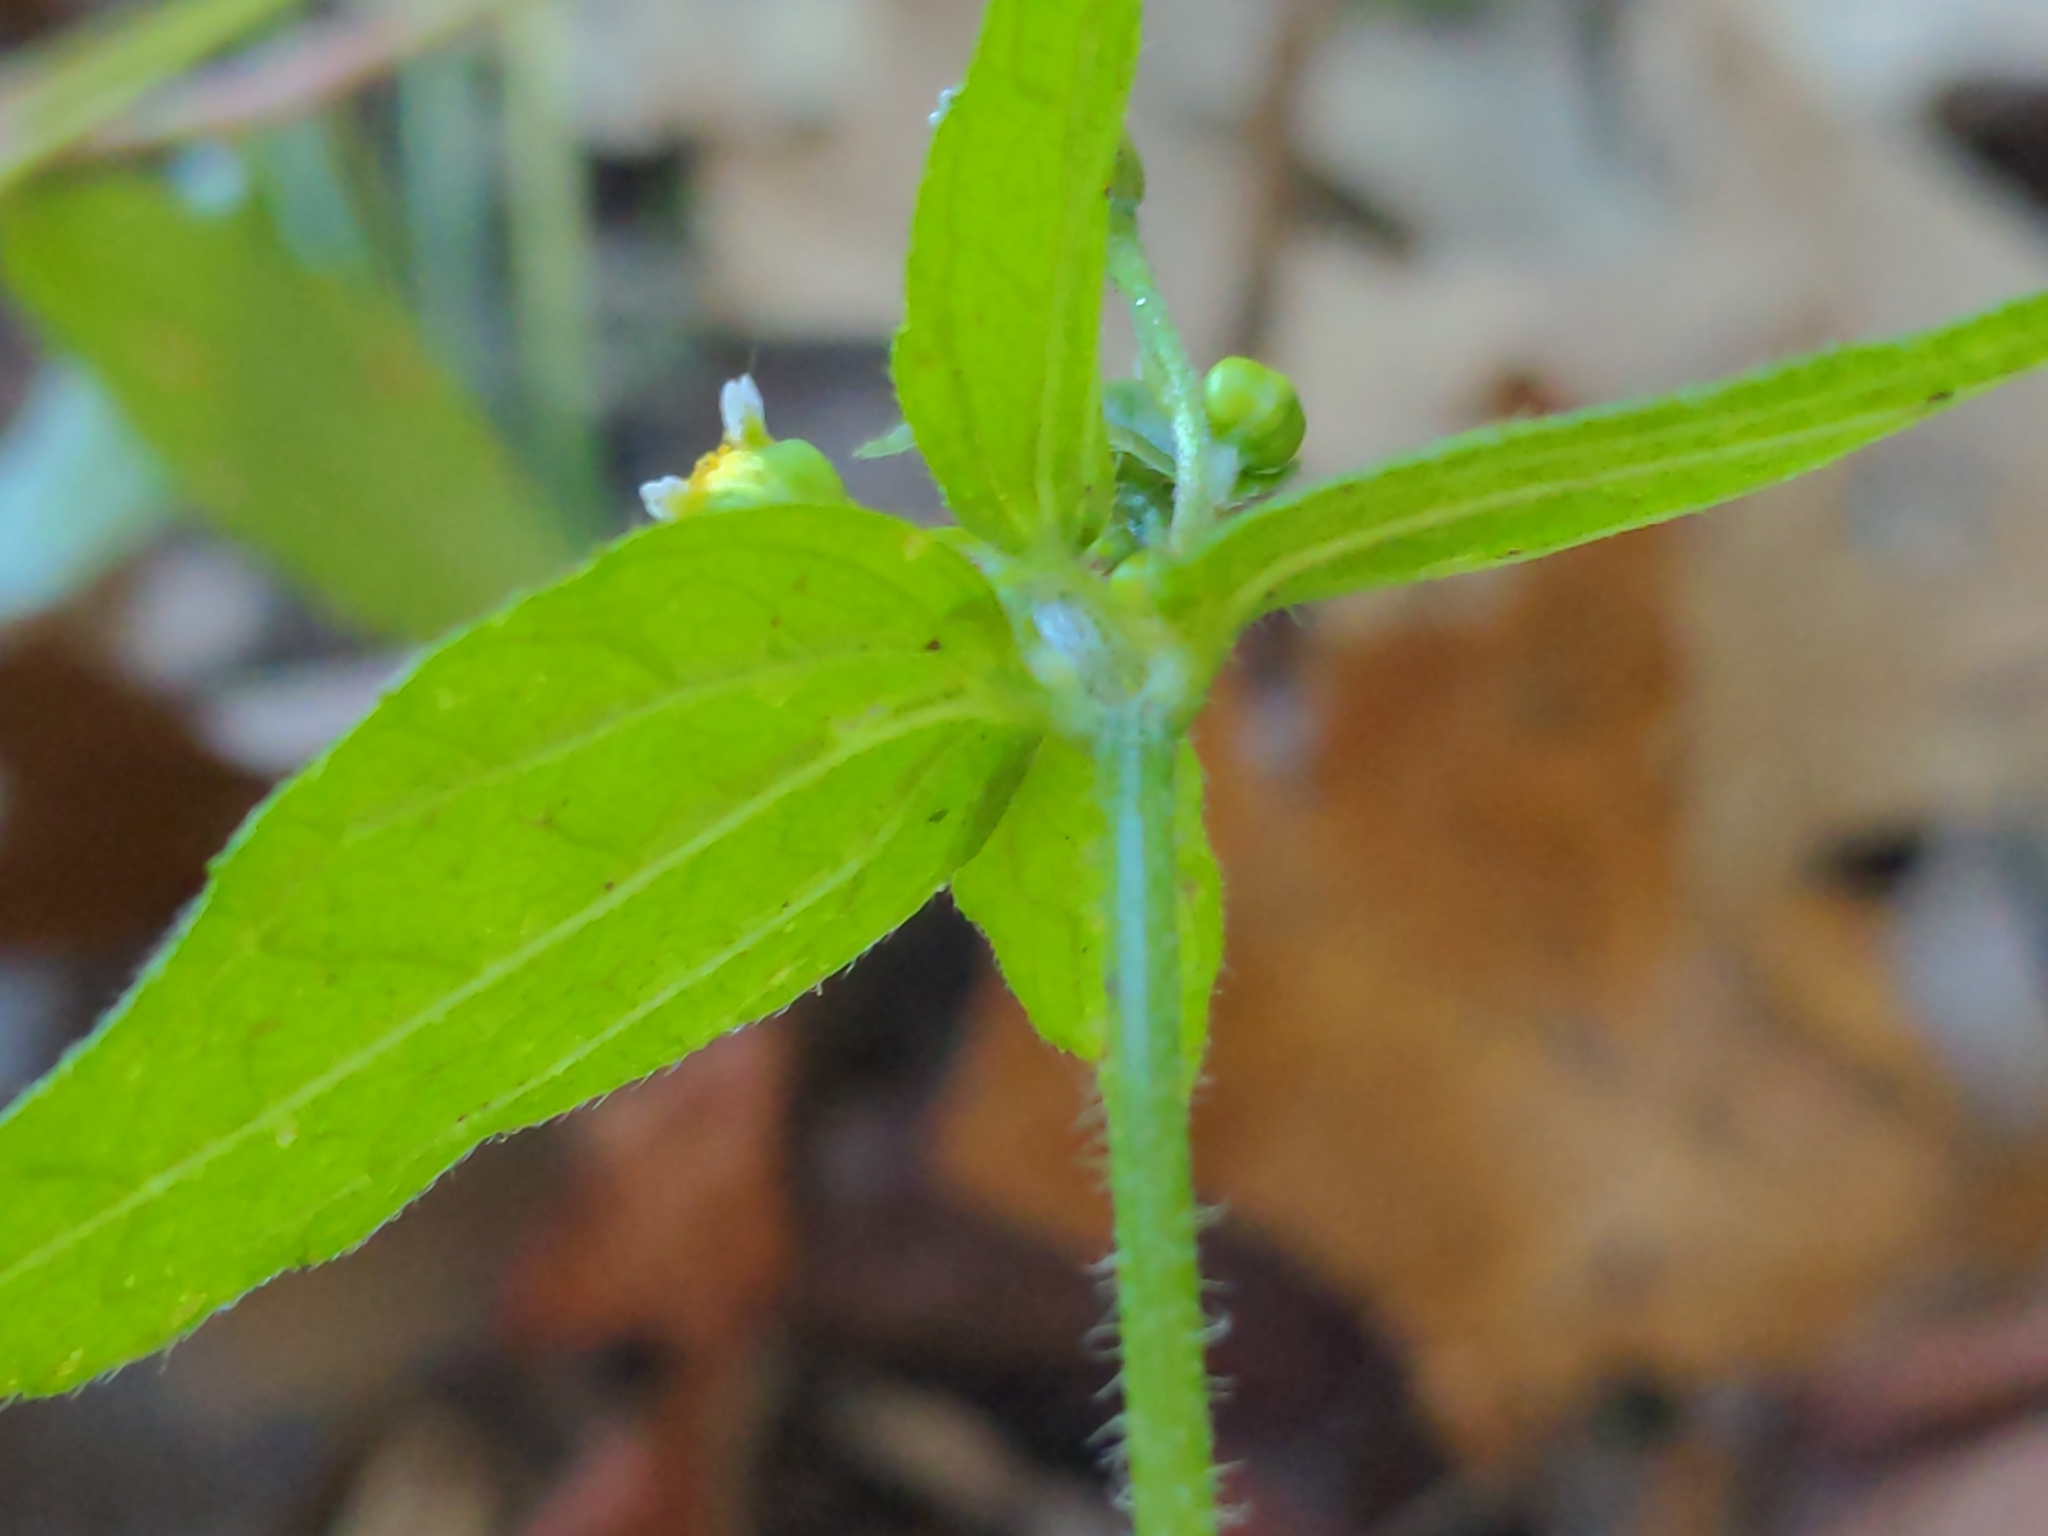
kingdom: Plantae
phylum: Tracheophyta
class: Magnoliopsida
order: Asterales
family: Asteraceae
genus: Galinsoga
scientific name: Galinsoga parviflora
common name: Gallant soldier
